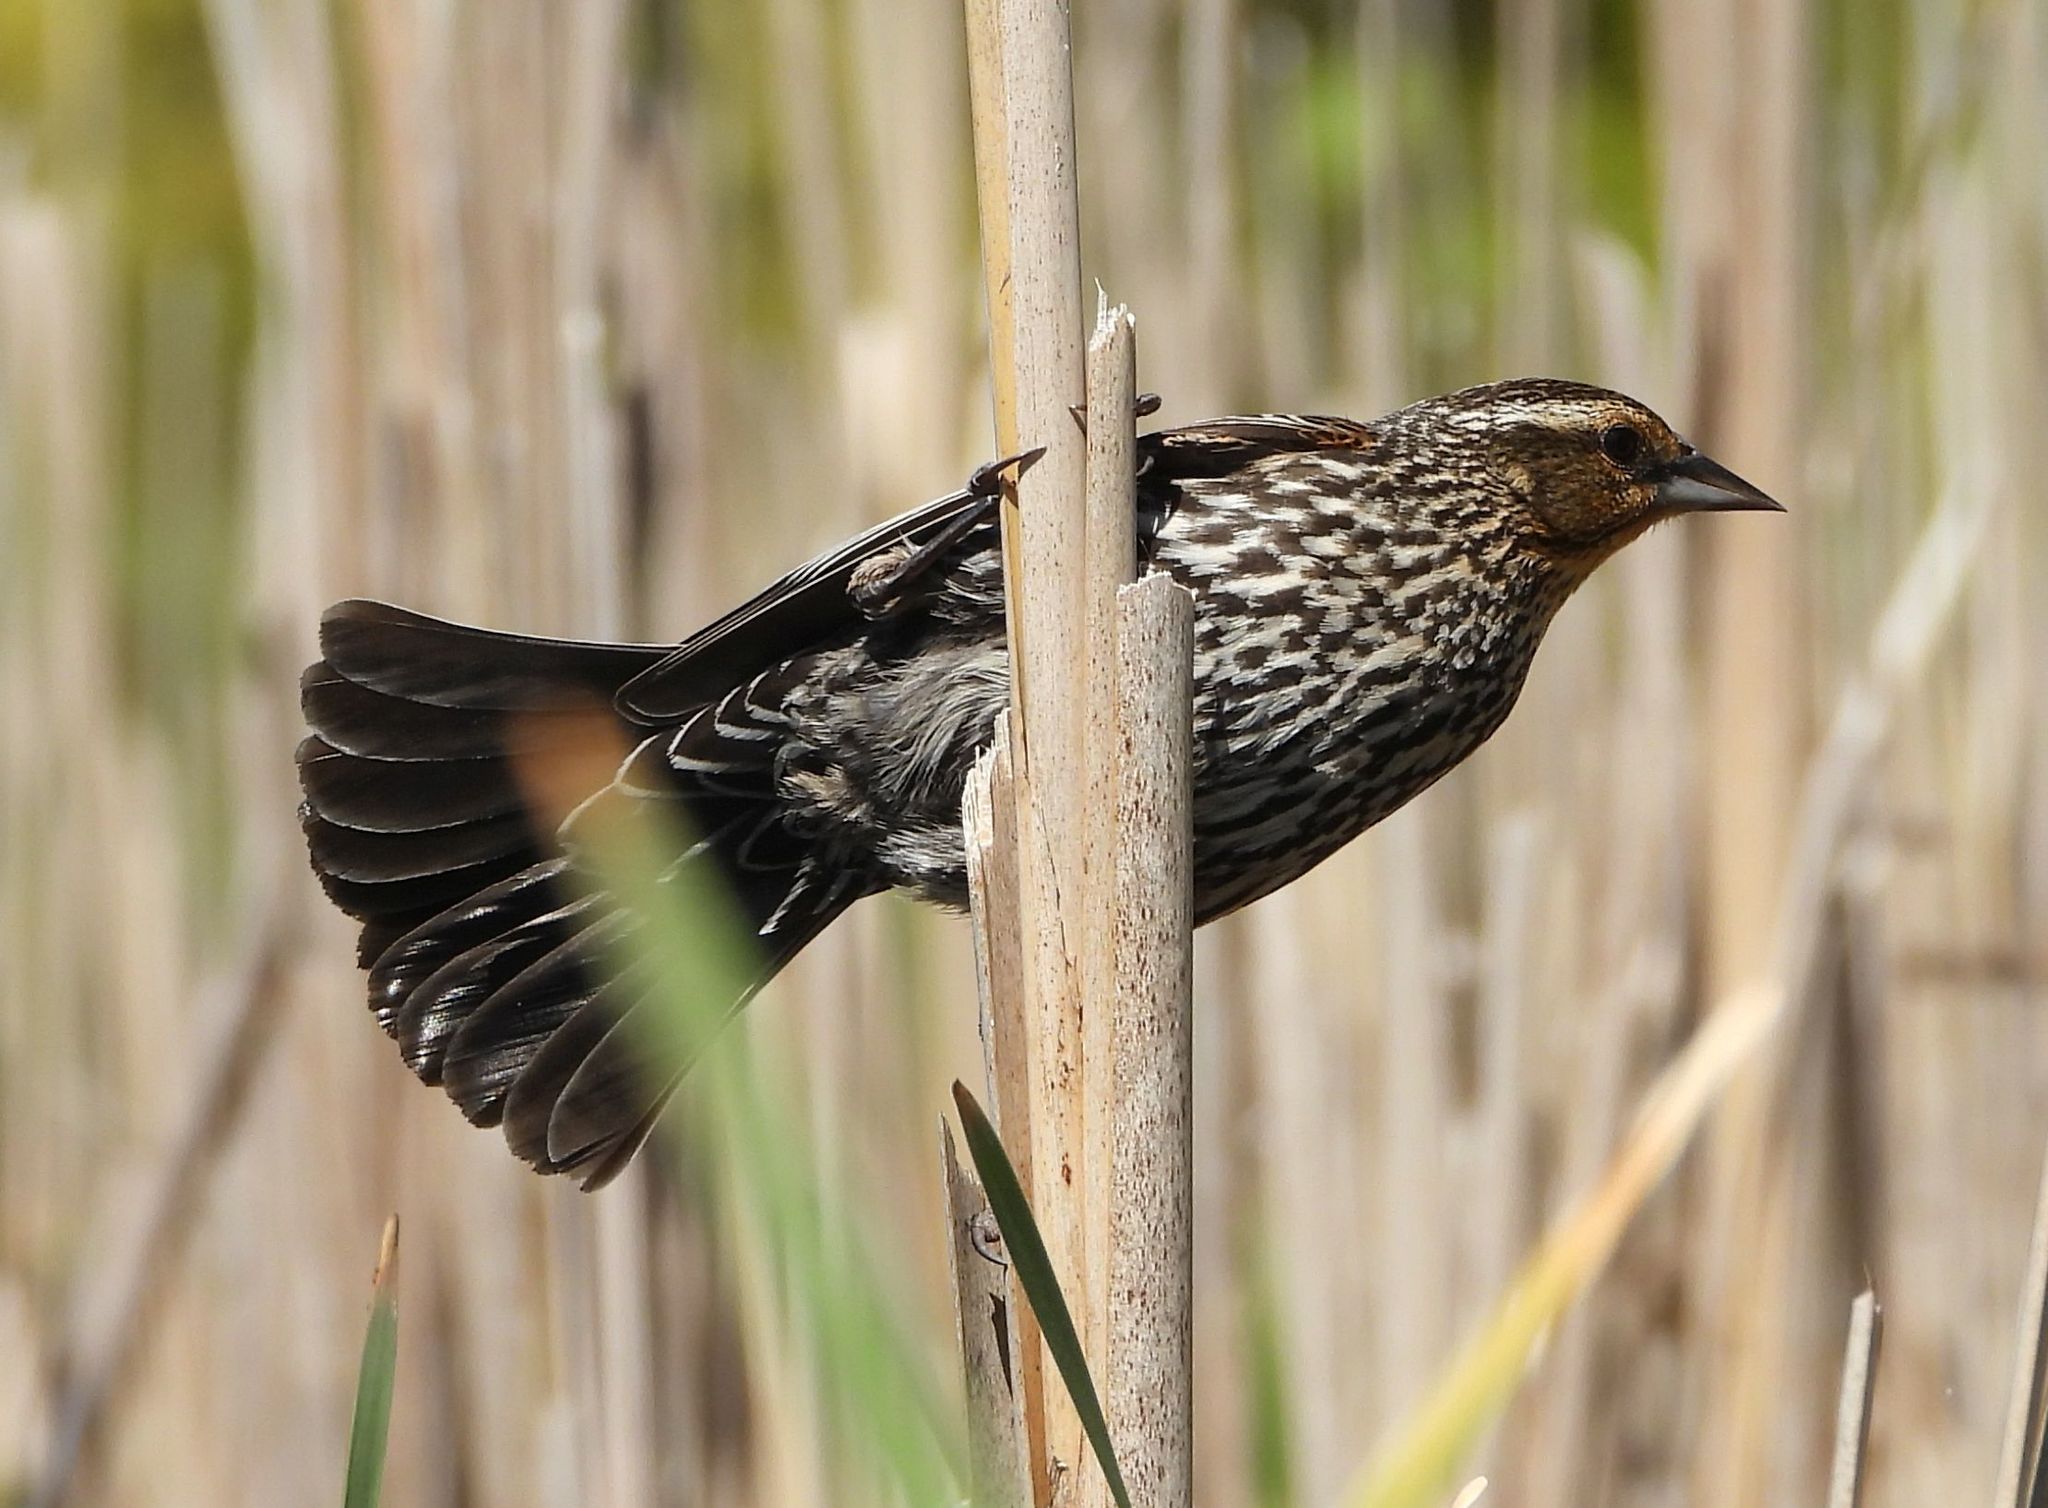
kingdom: Animalia
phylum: Chordata
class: Aves
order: Passeriformes
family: Icteridae
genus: Agelaius
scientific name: Agelaius phoeniceus
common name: Red-winged blackbird
